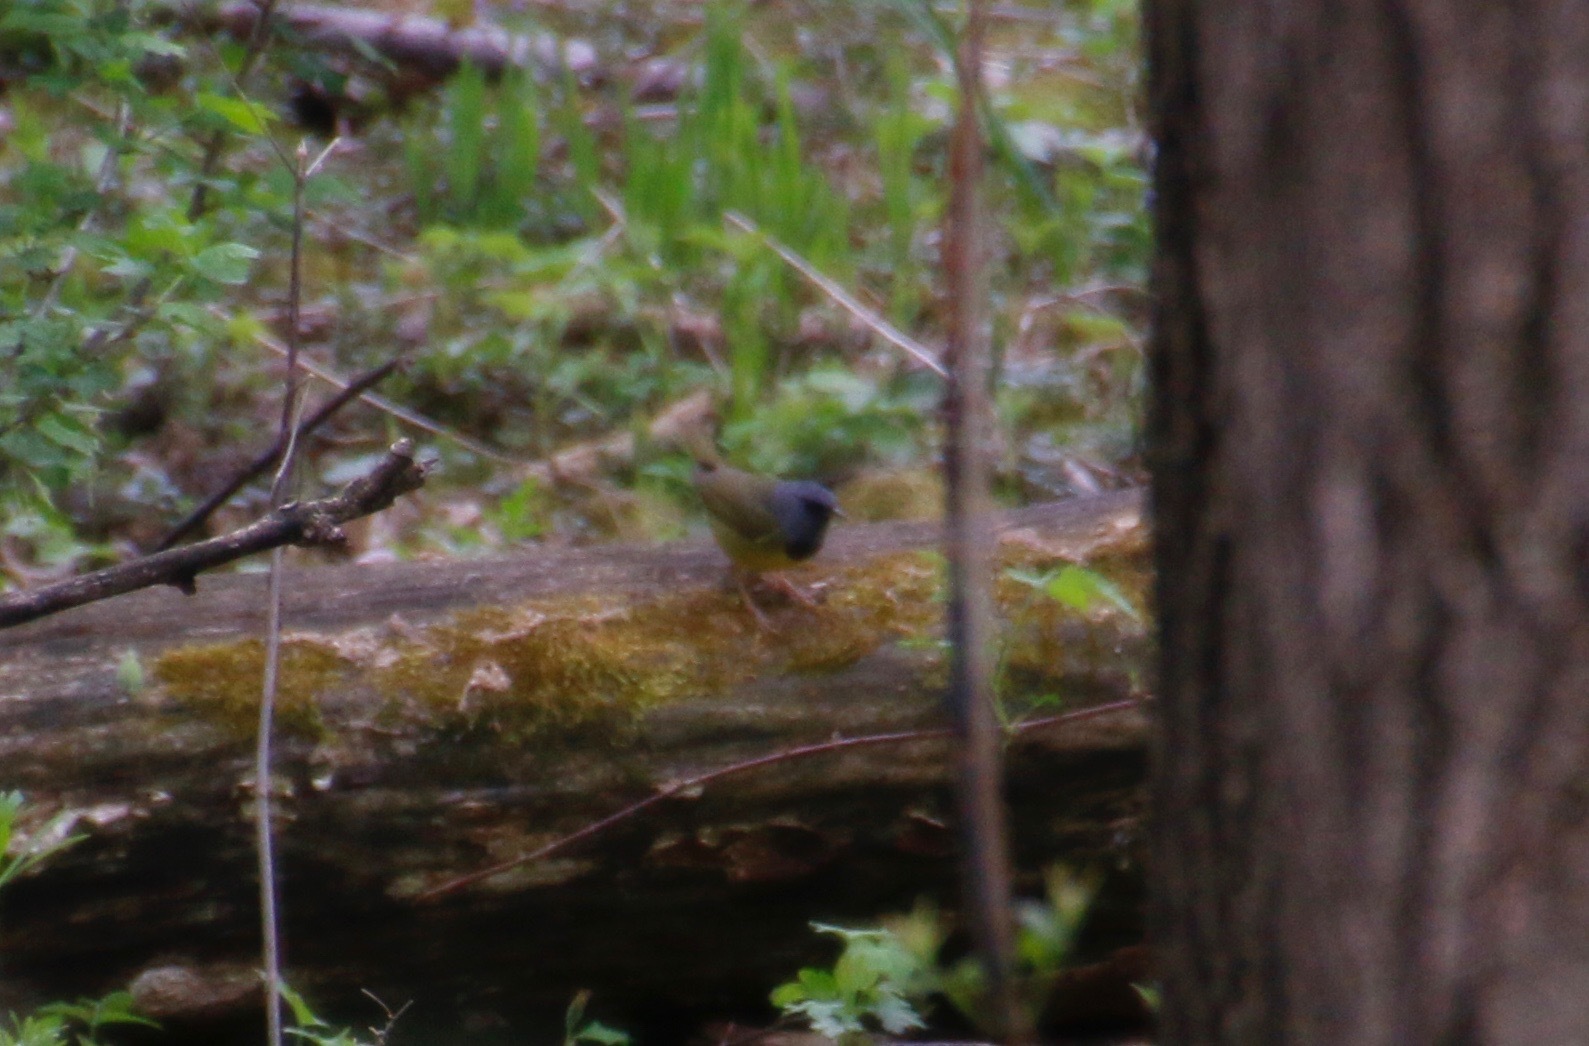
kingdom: Animalia
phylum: Chordata
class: Aves
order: Passeriformes
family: Parulidae
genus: Geothlypis
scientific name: Geothlypis philadelphia
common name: Mourning warbler
